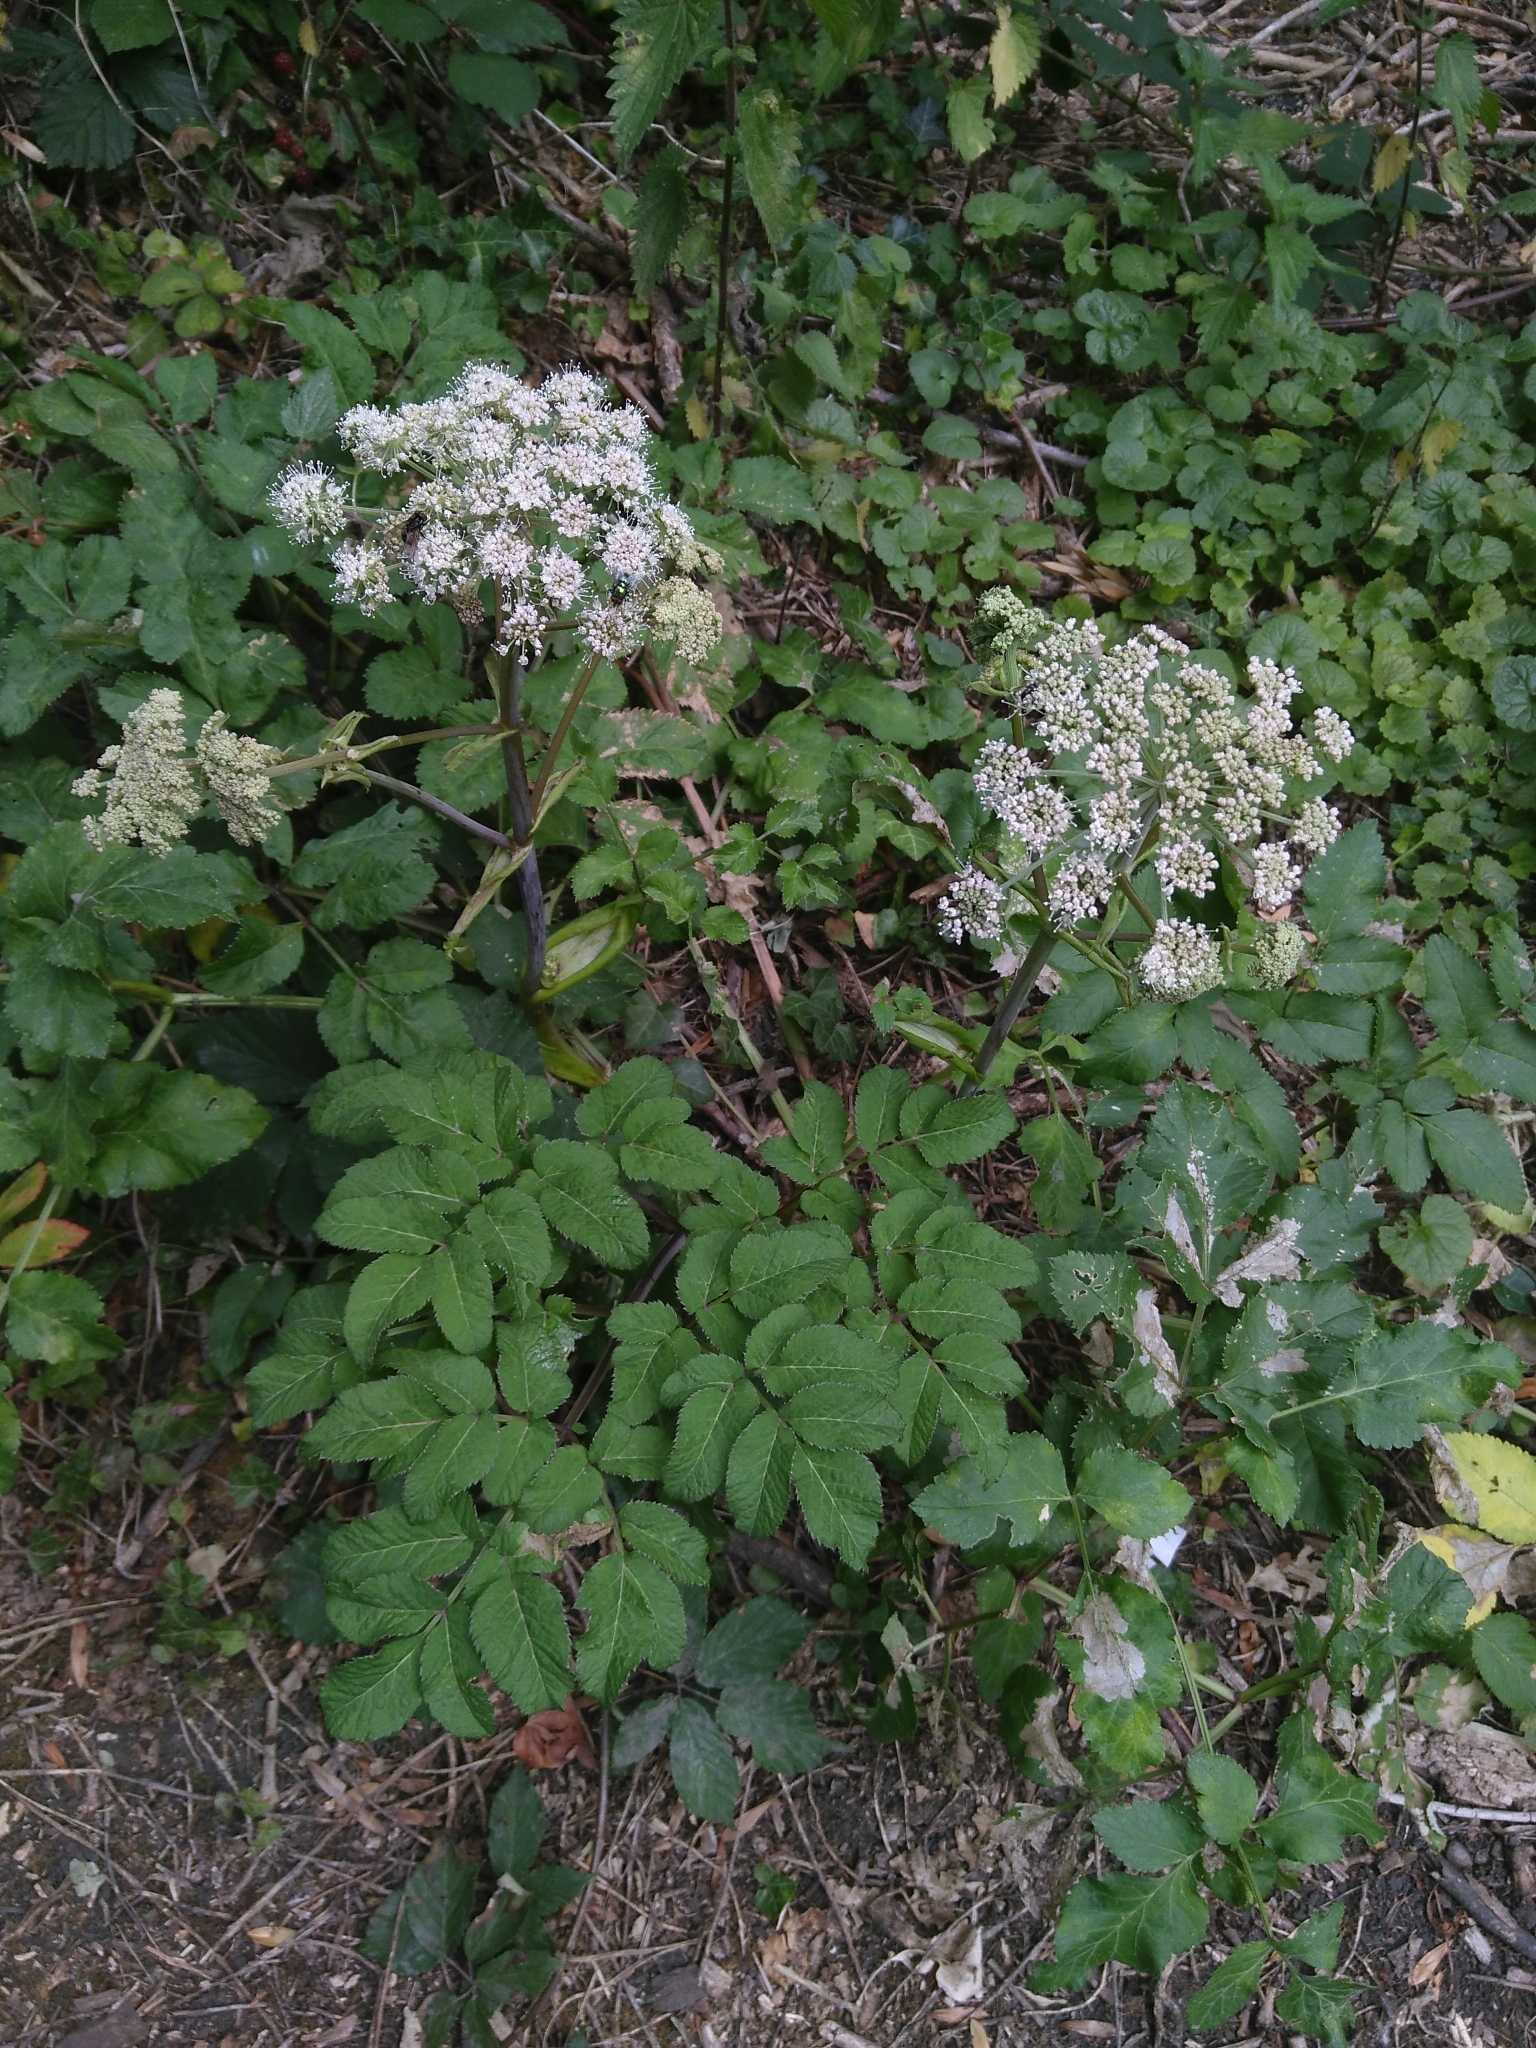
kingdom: Plantae
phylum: Tracheophyta
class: Magnoliopsida
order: Apiales
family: Apiaceae
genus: Angelica
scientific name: Angelica sylvestris
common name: Wild angelica
